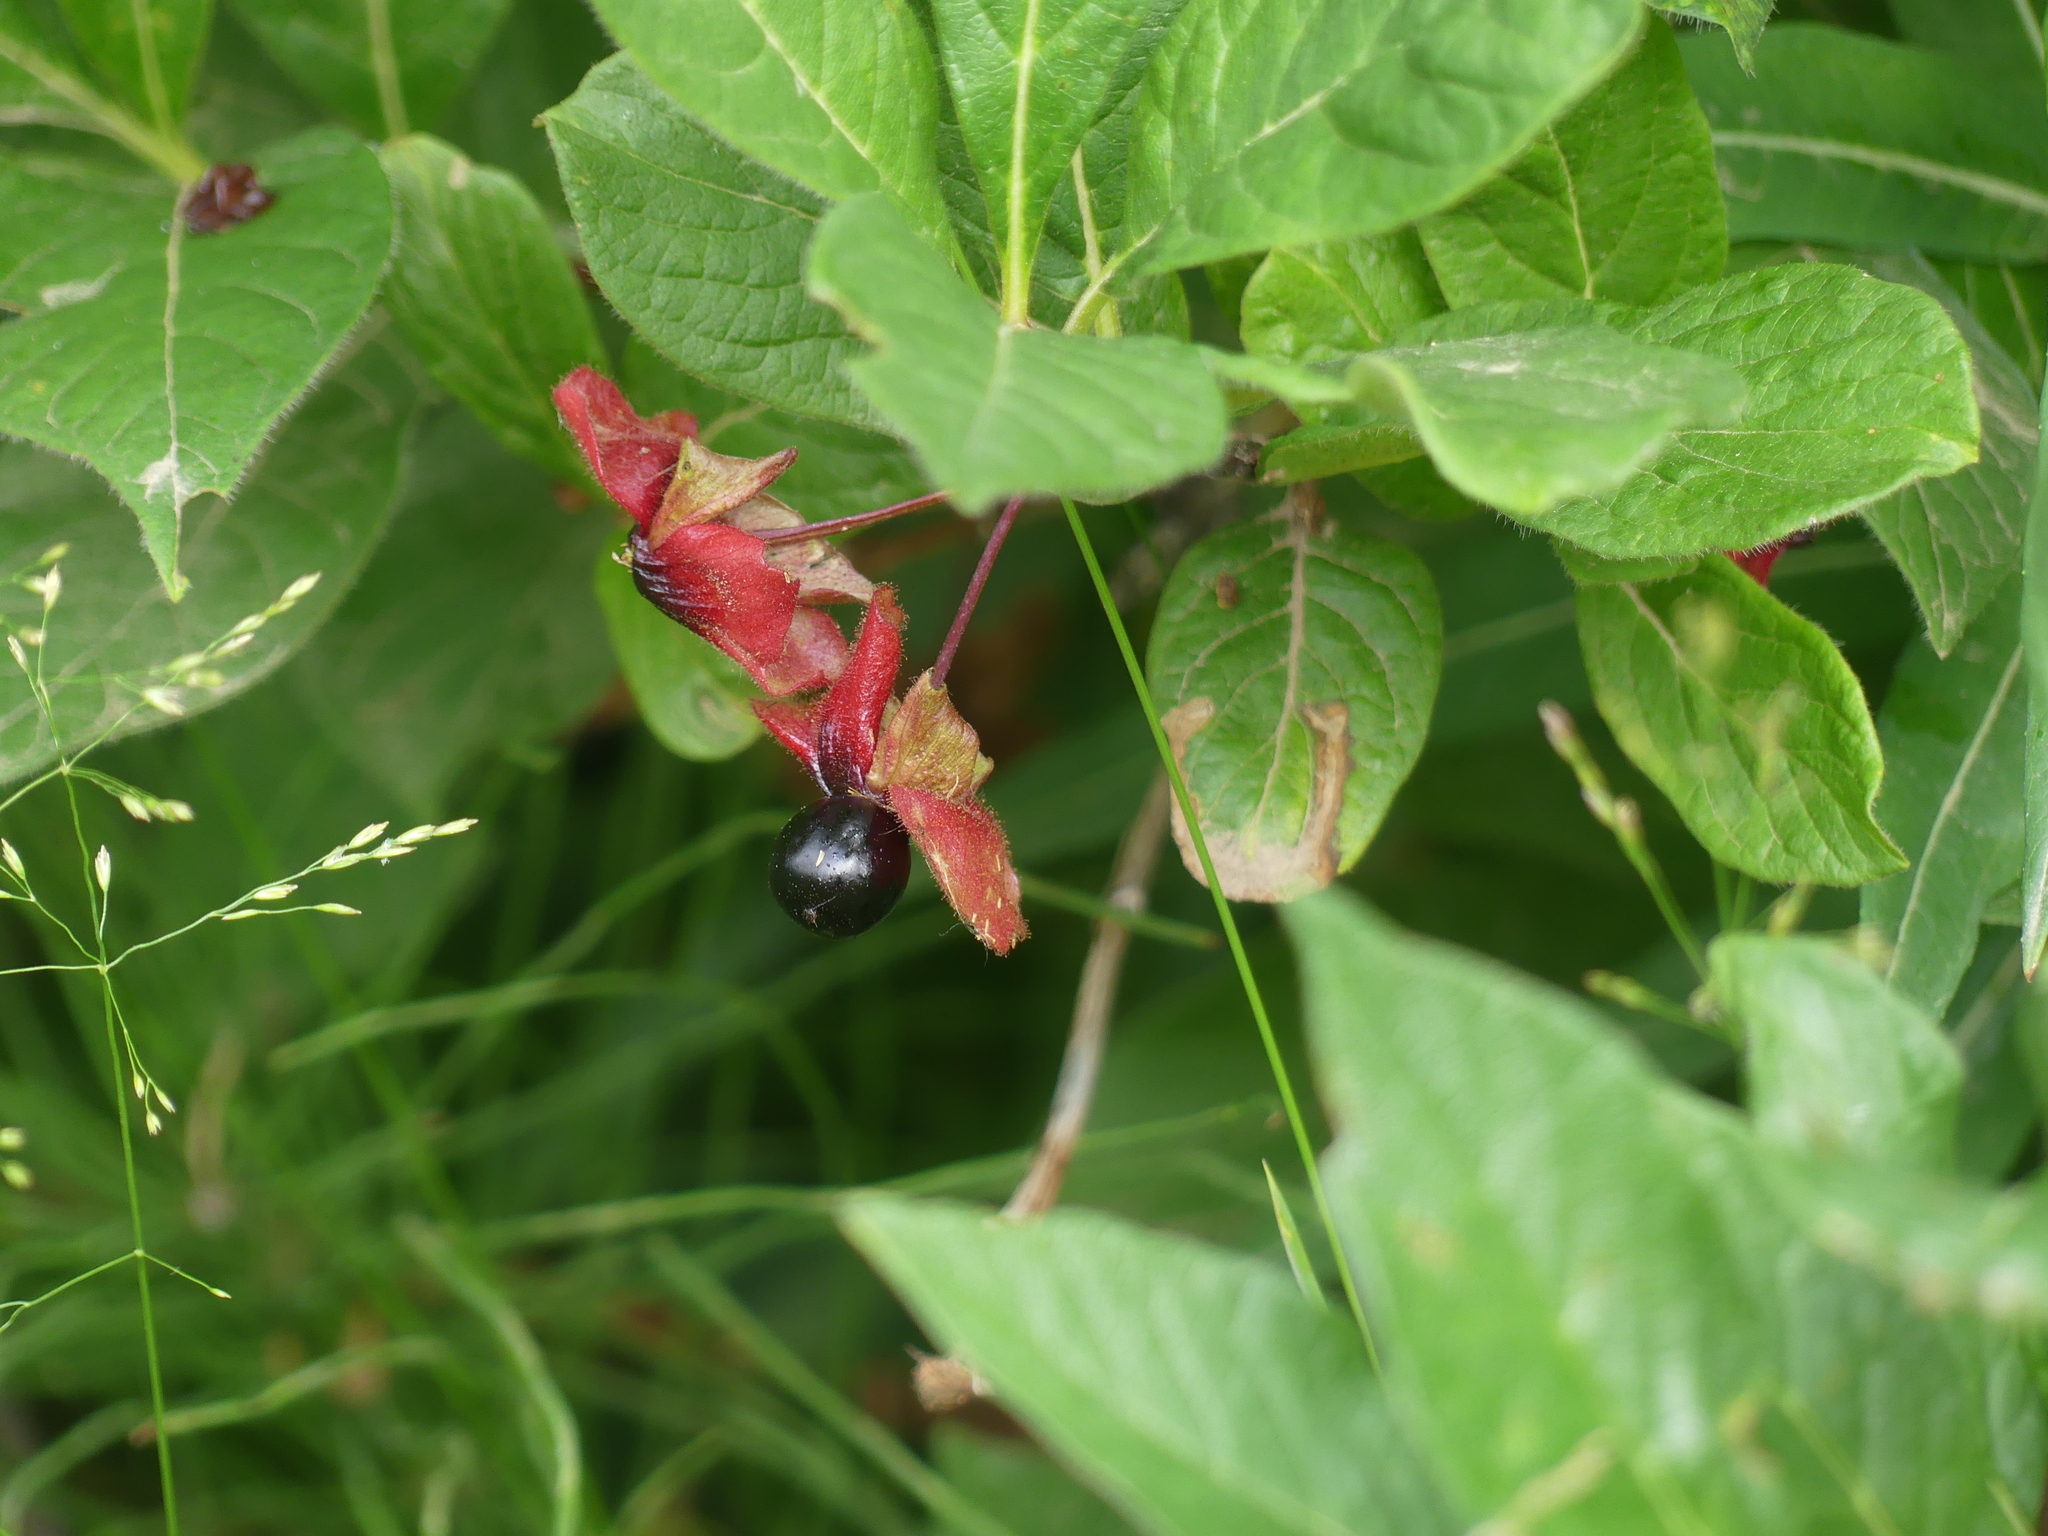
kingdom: Plantae
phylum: Tracheophyta
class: Magnoliopsida
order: Dipsacales
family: Caprifoliaceae
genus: Lonicera
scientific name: Lonicera involucrata
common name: Californian honeysuckle
